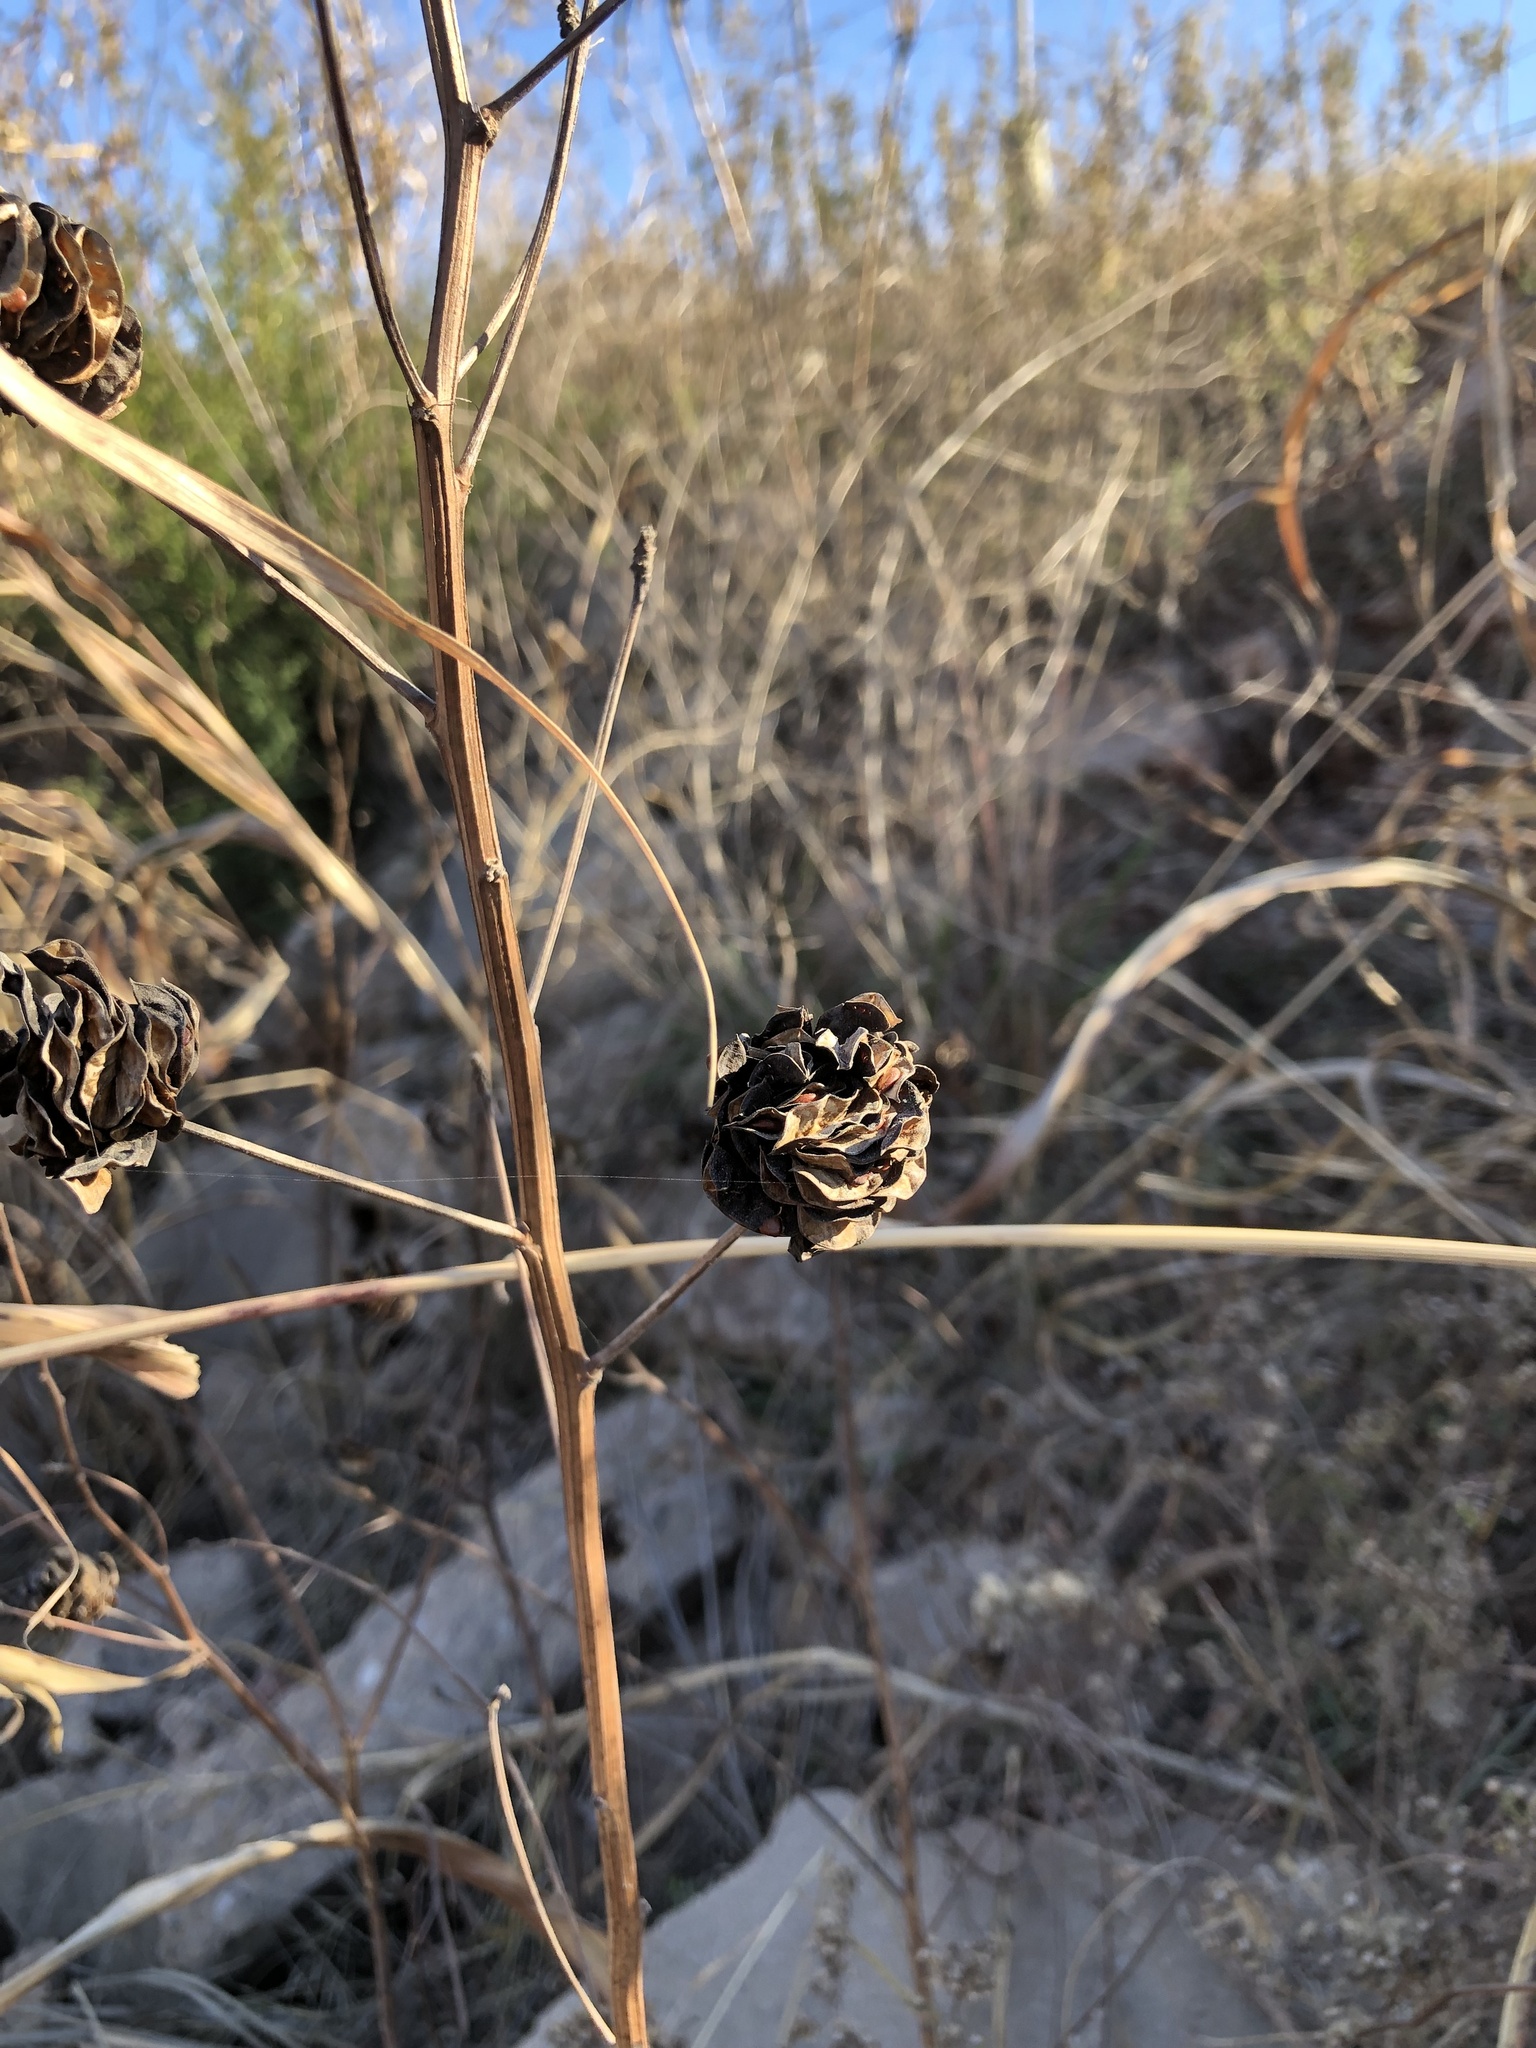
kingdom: Plantae
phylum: Tracheophyta
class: Magnoliopsida
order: Fabales
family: Fabaceae
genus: Desmanthus
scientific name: Desmanthus illinoensis
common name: Illinois bundle-flower
